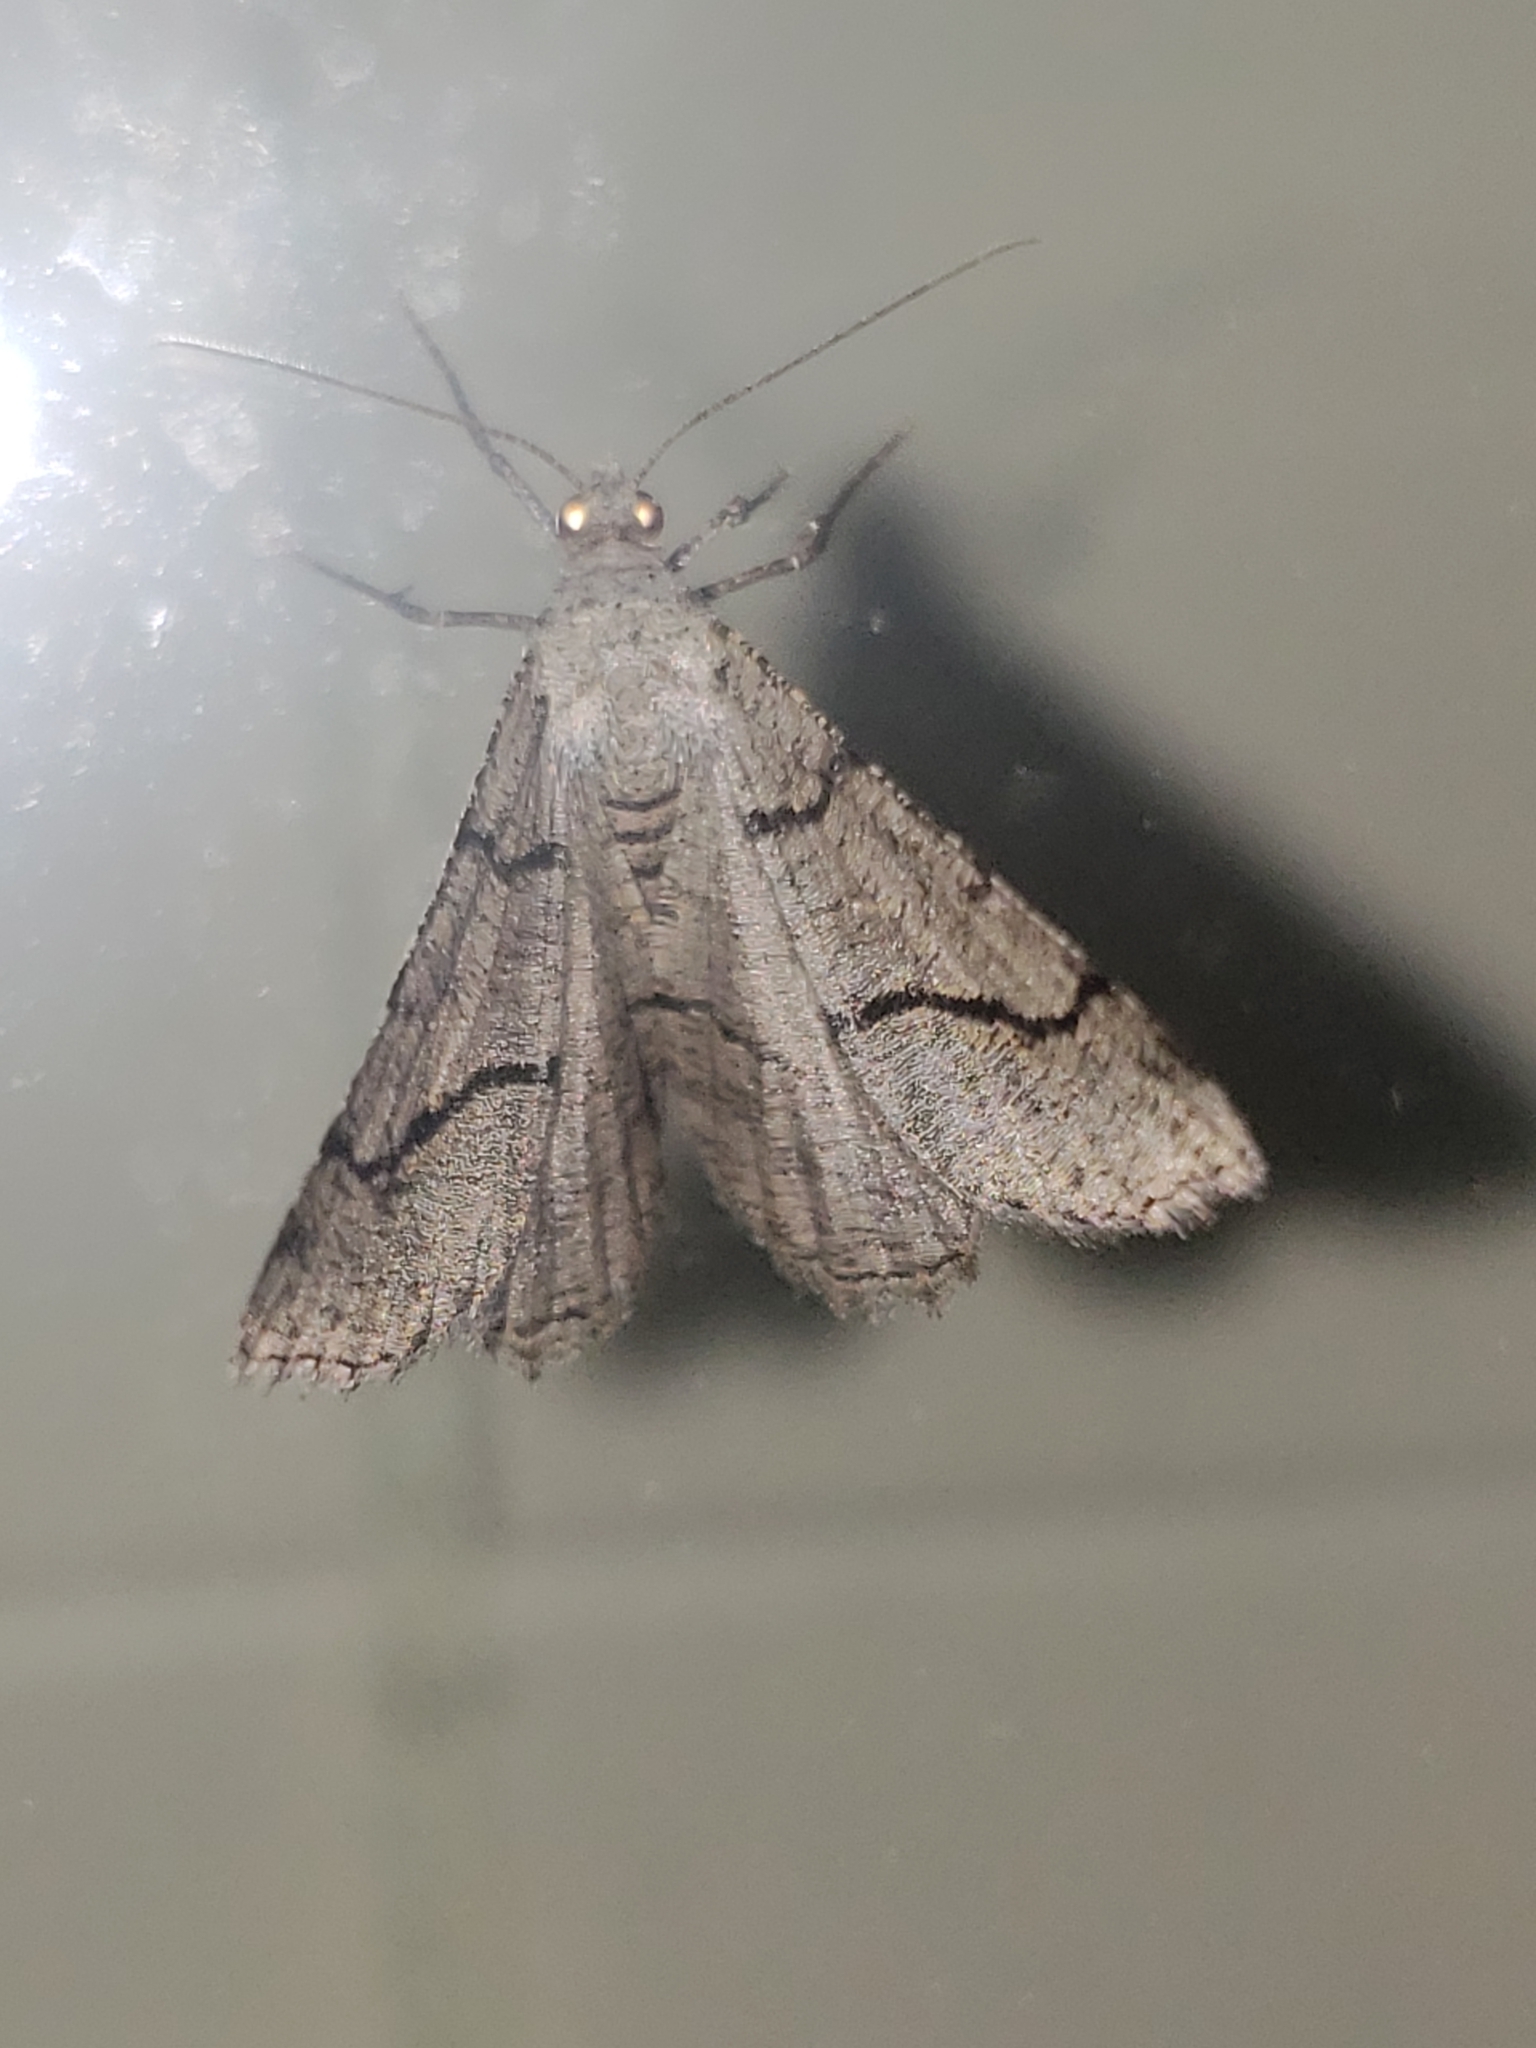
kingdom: Animalia
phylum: Arthropoda
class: Insecta
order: Lepidoptera
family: Geometridae
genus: Digrammia
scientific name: Digrammia continuata
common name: Curve-lined angle
